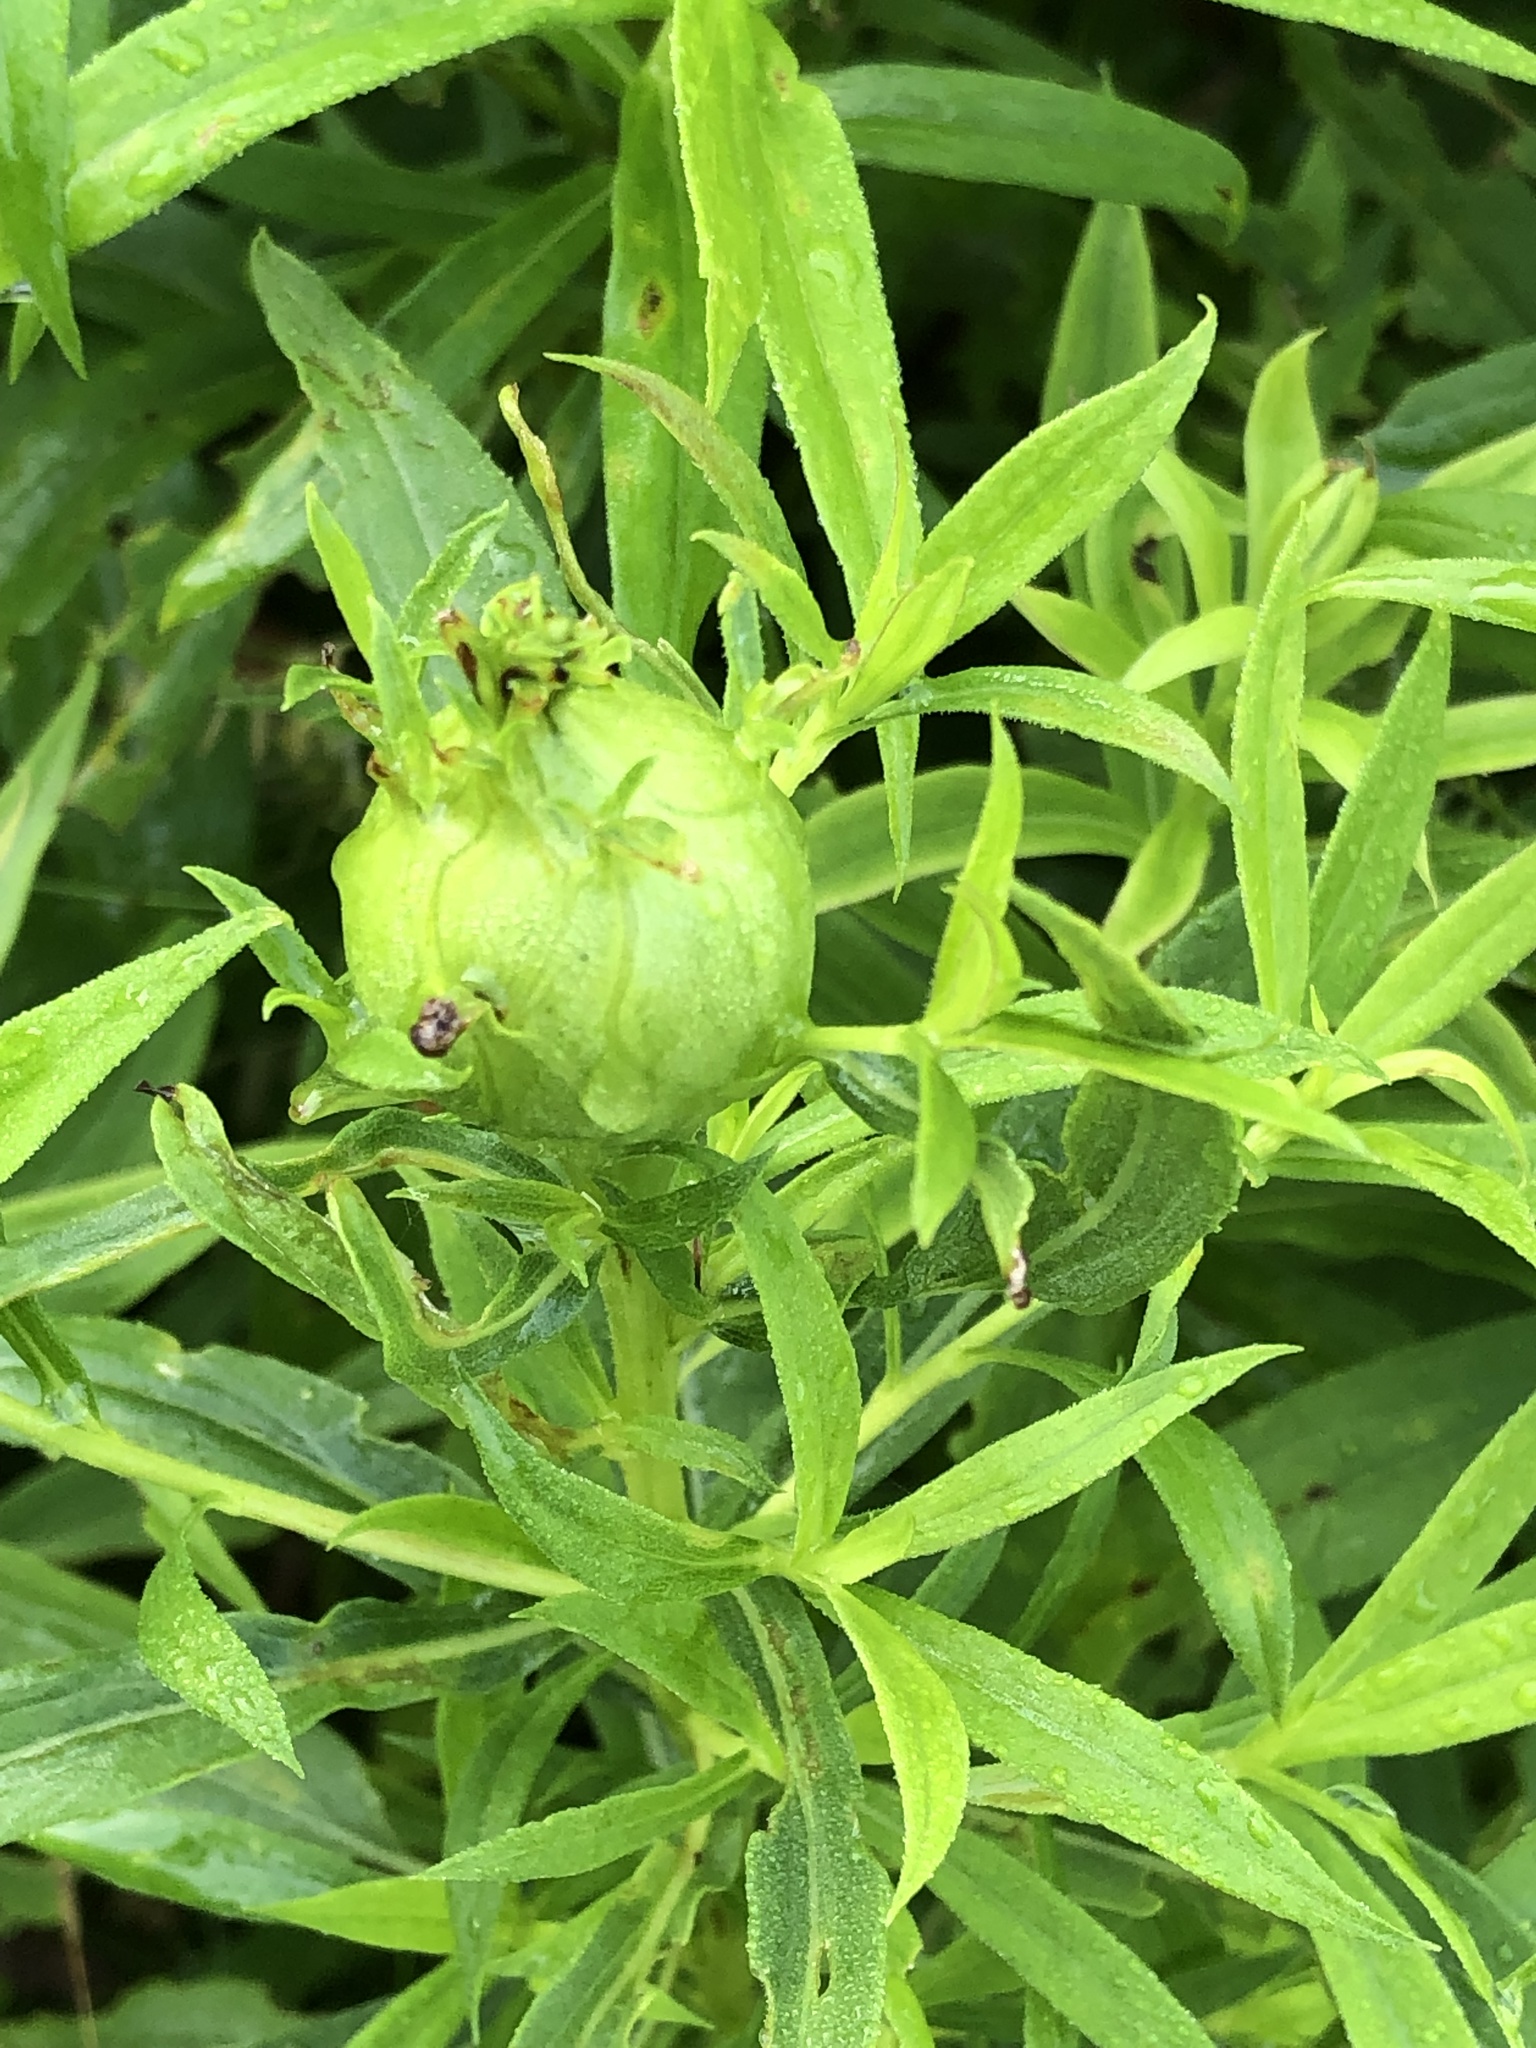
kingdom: Animalia
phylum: Arthropoda
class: Insecta
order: Diptera
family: Tephritidae
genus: Eurosta
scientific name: Eurosta solidaginis
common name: Goldenrod gall fly
